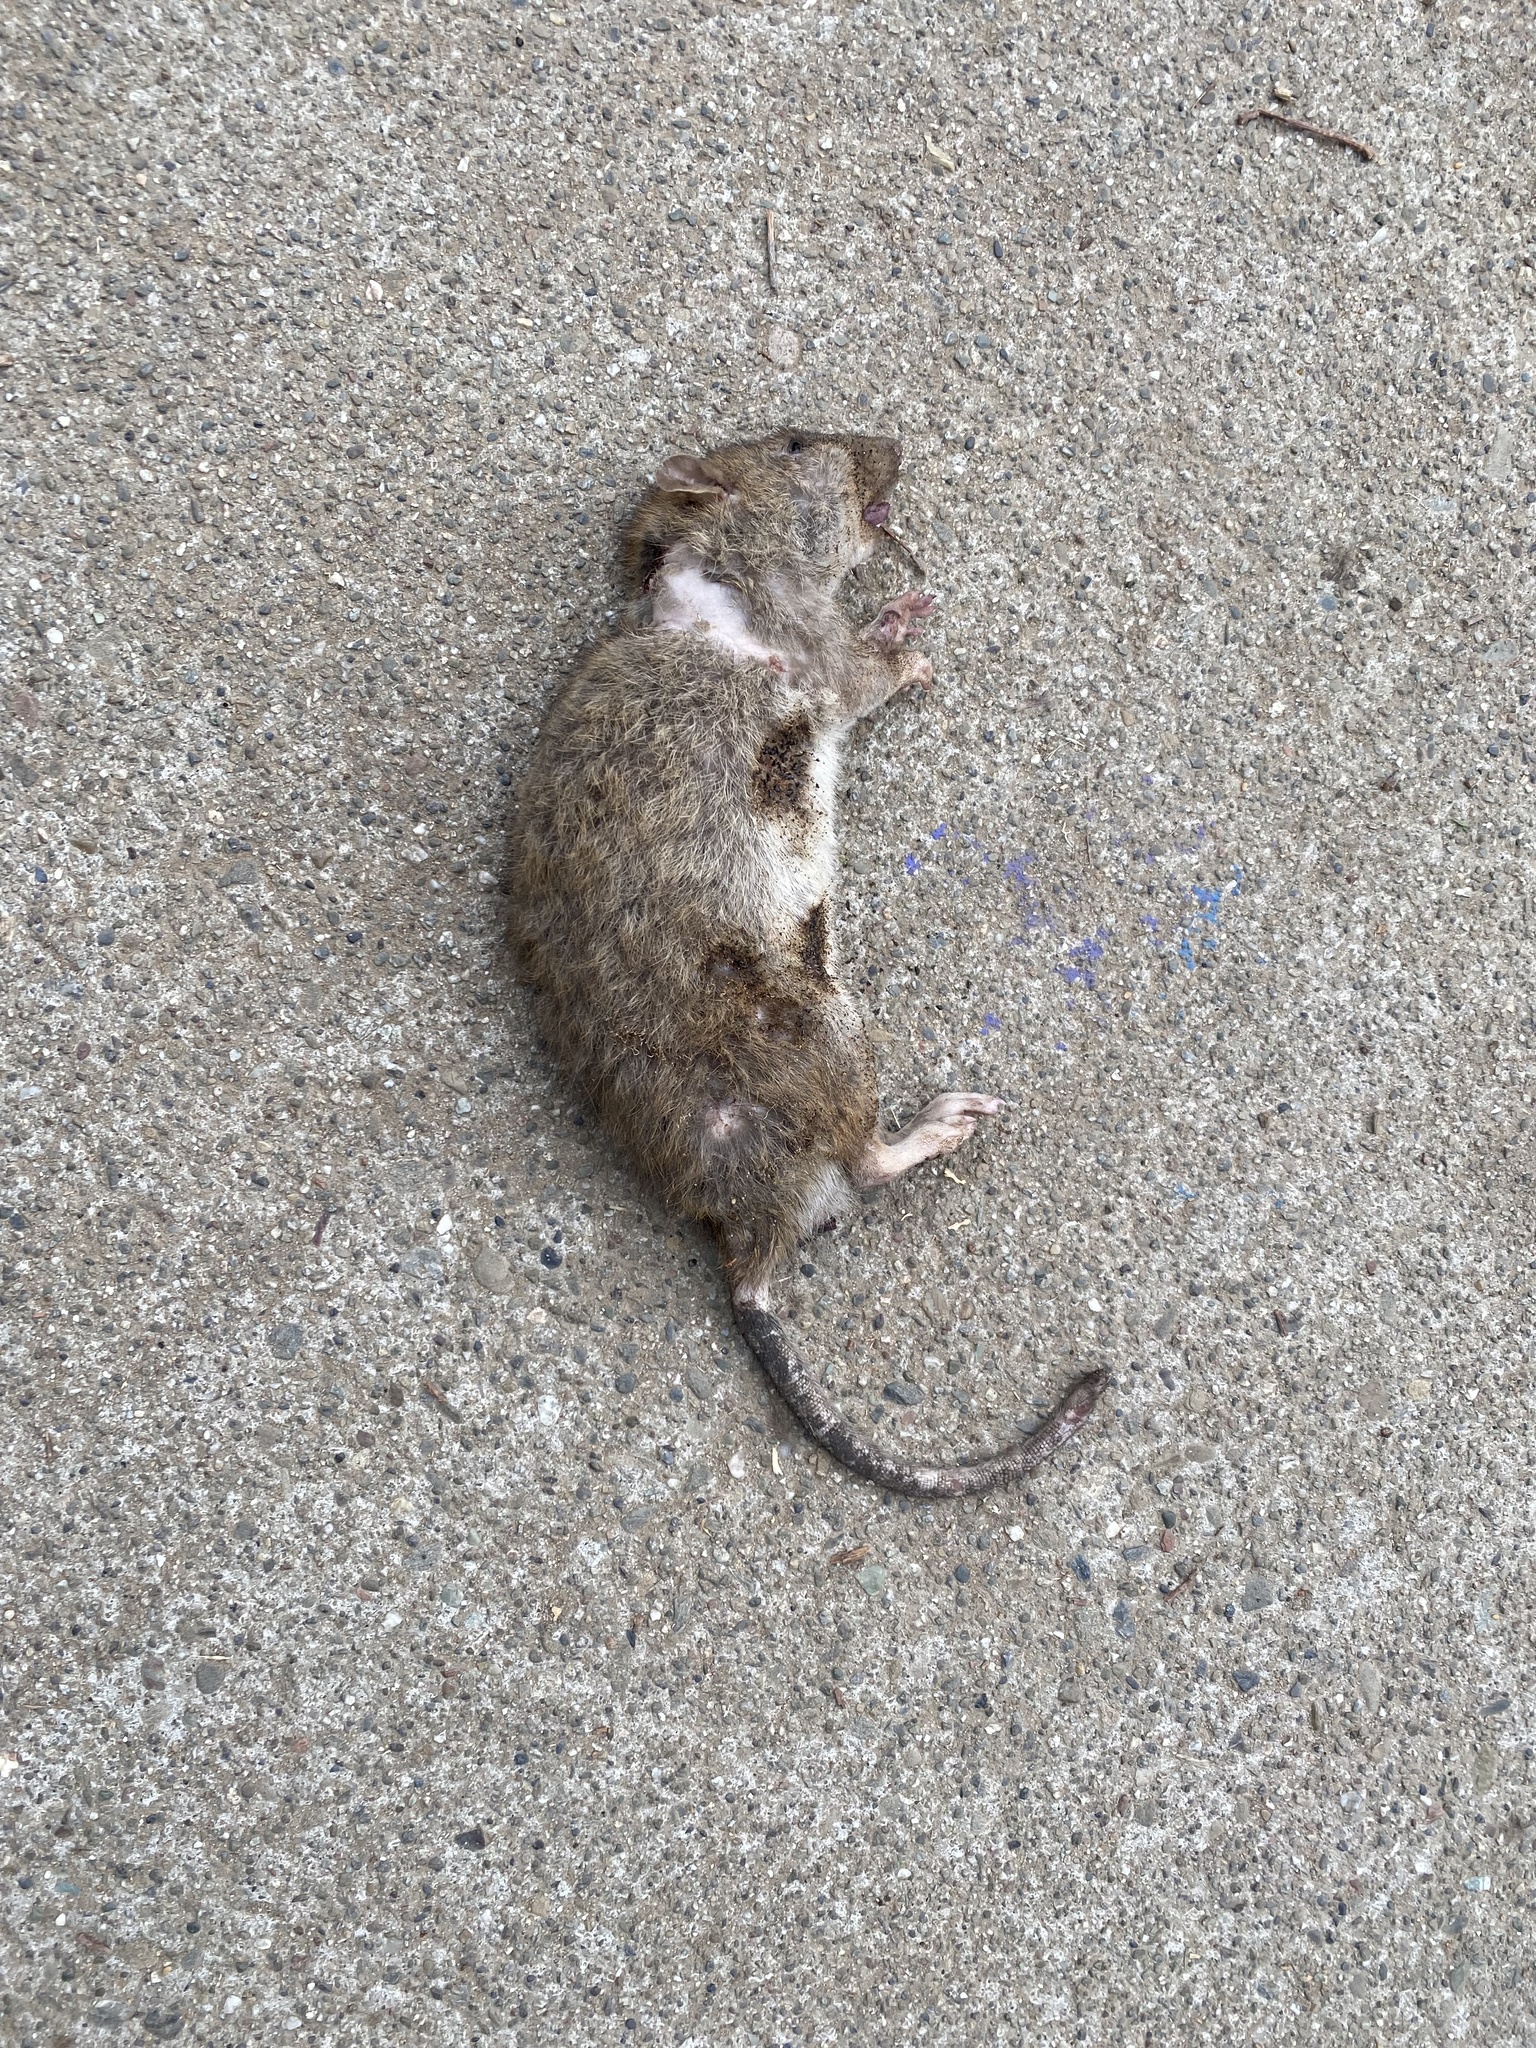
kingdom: Animalia
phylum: Chordata
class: Mammalia
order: Rodentia
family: Muridae
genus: Rattus
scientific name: Rattus norvegicus
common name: Brown rat
